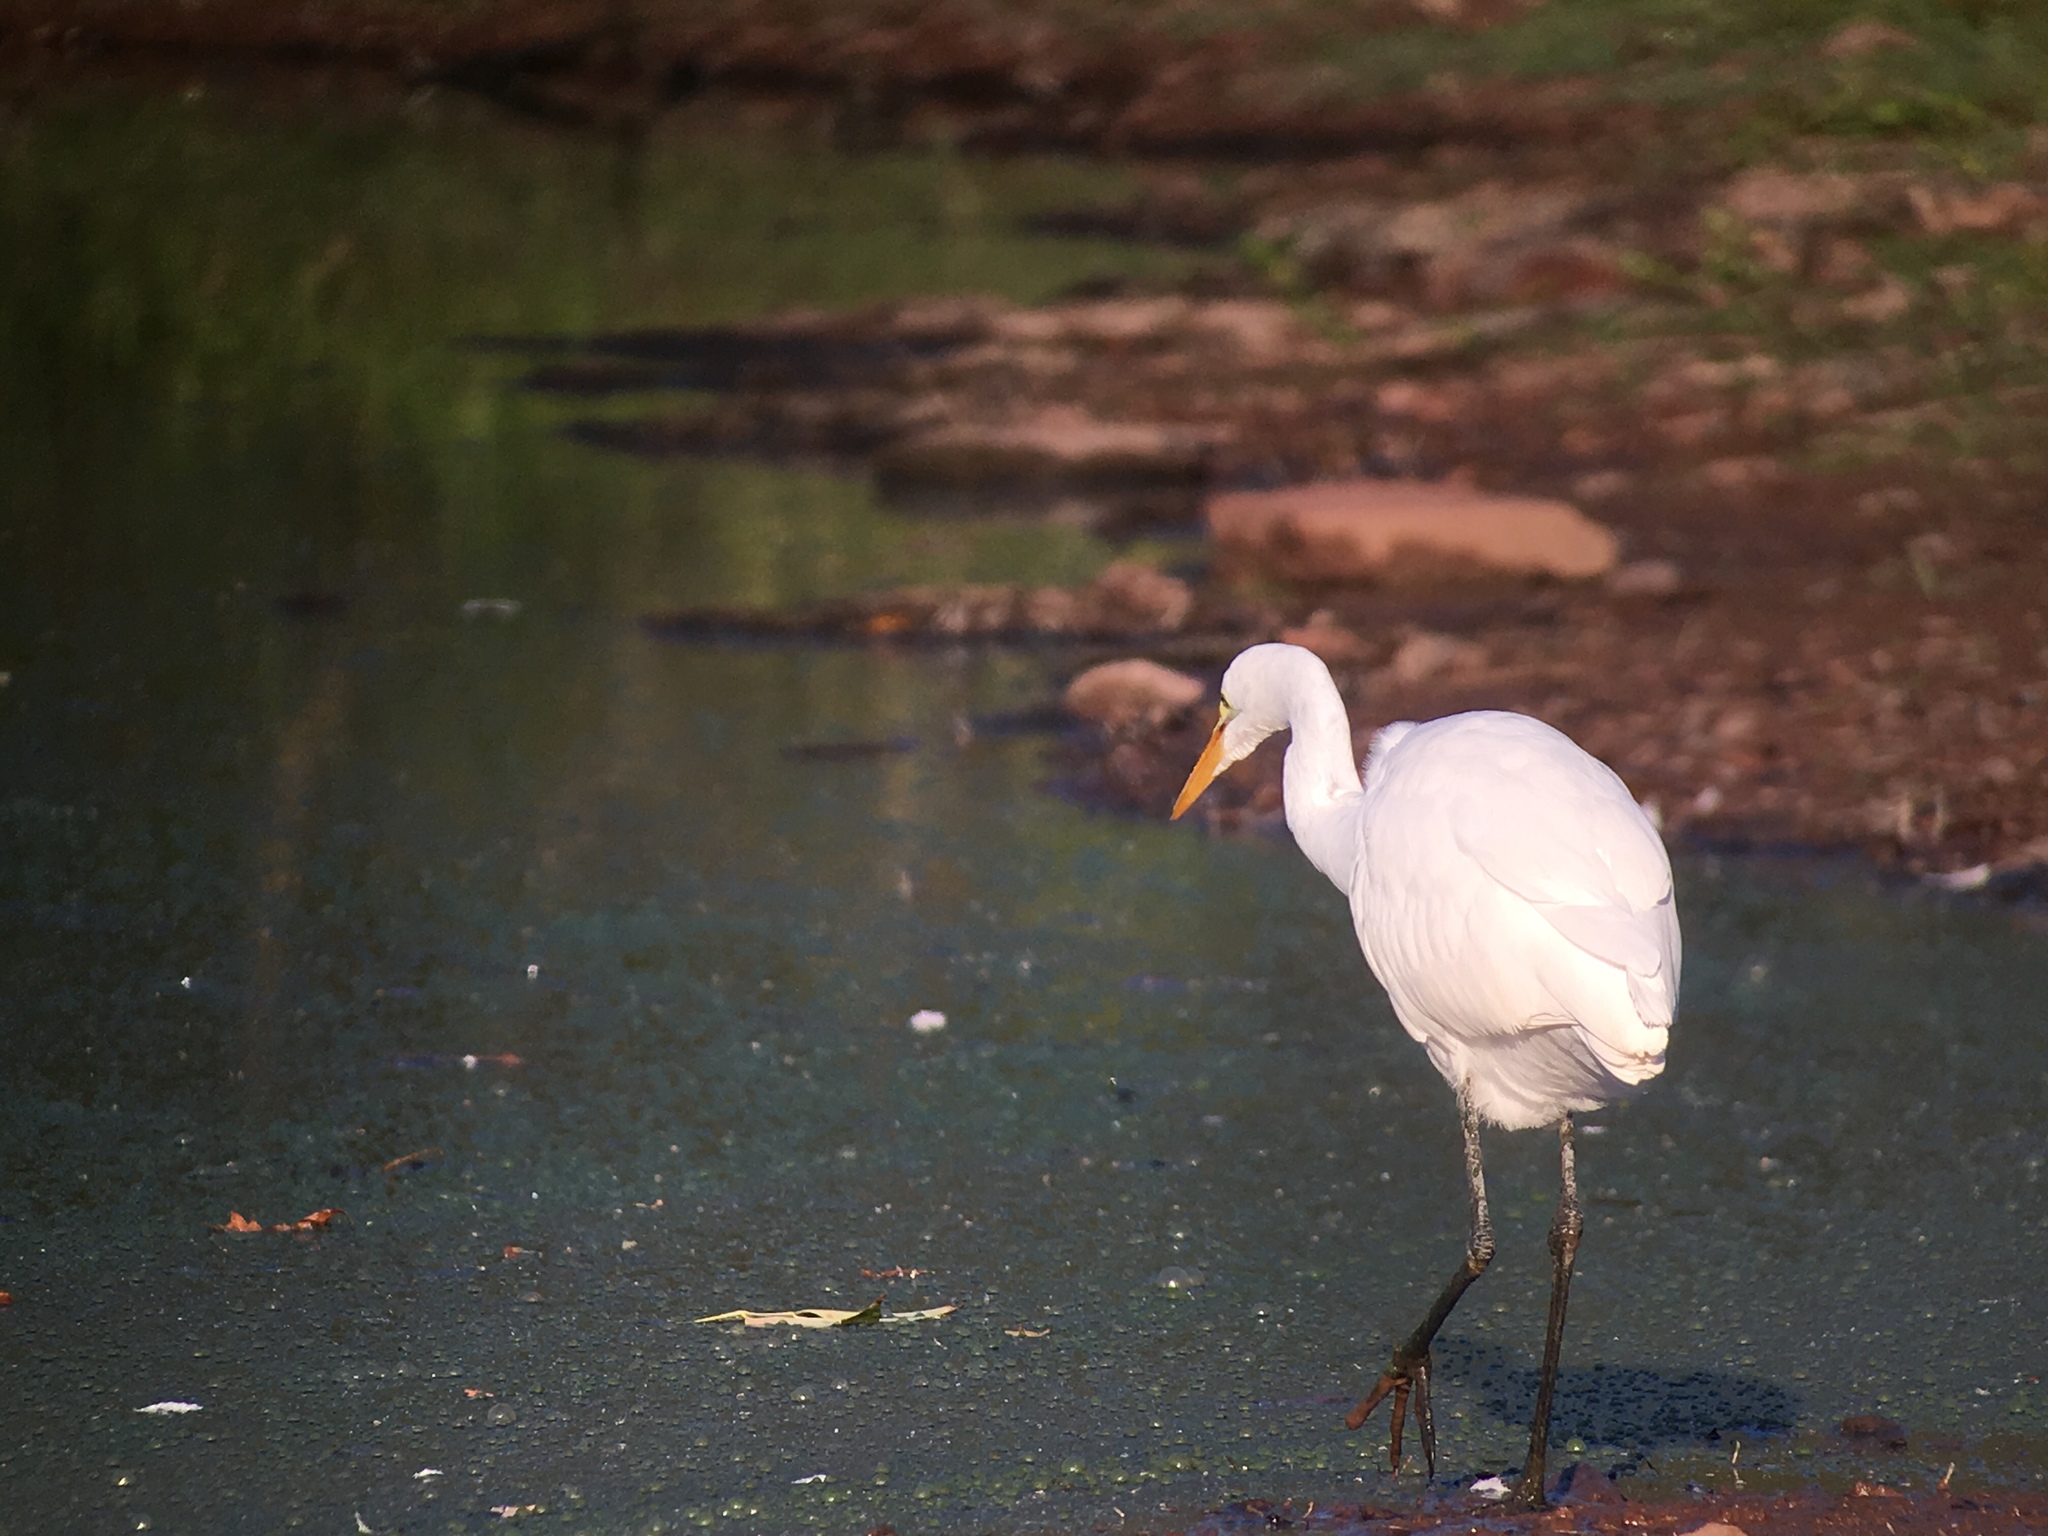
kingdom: Animalia
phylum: Chordata
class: Aves
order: Pelecaniformes
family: Ardeidae
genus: Ardea
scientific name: Ardea alba
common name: Great egret
